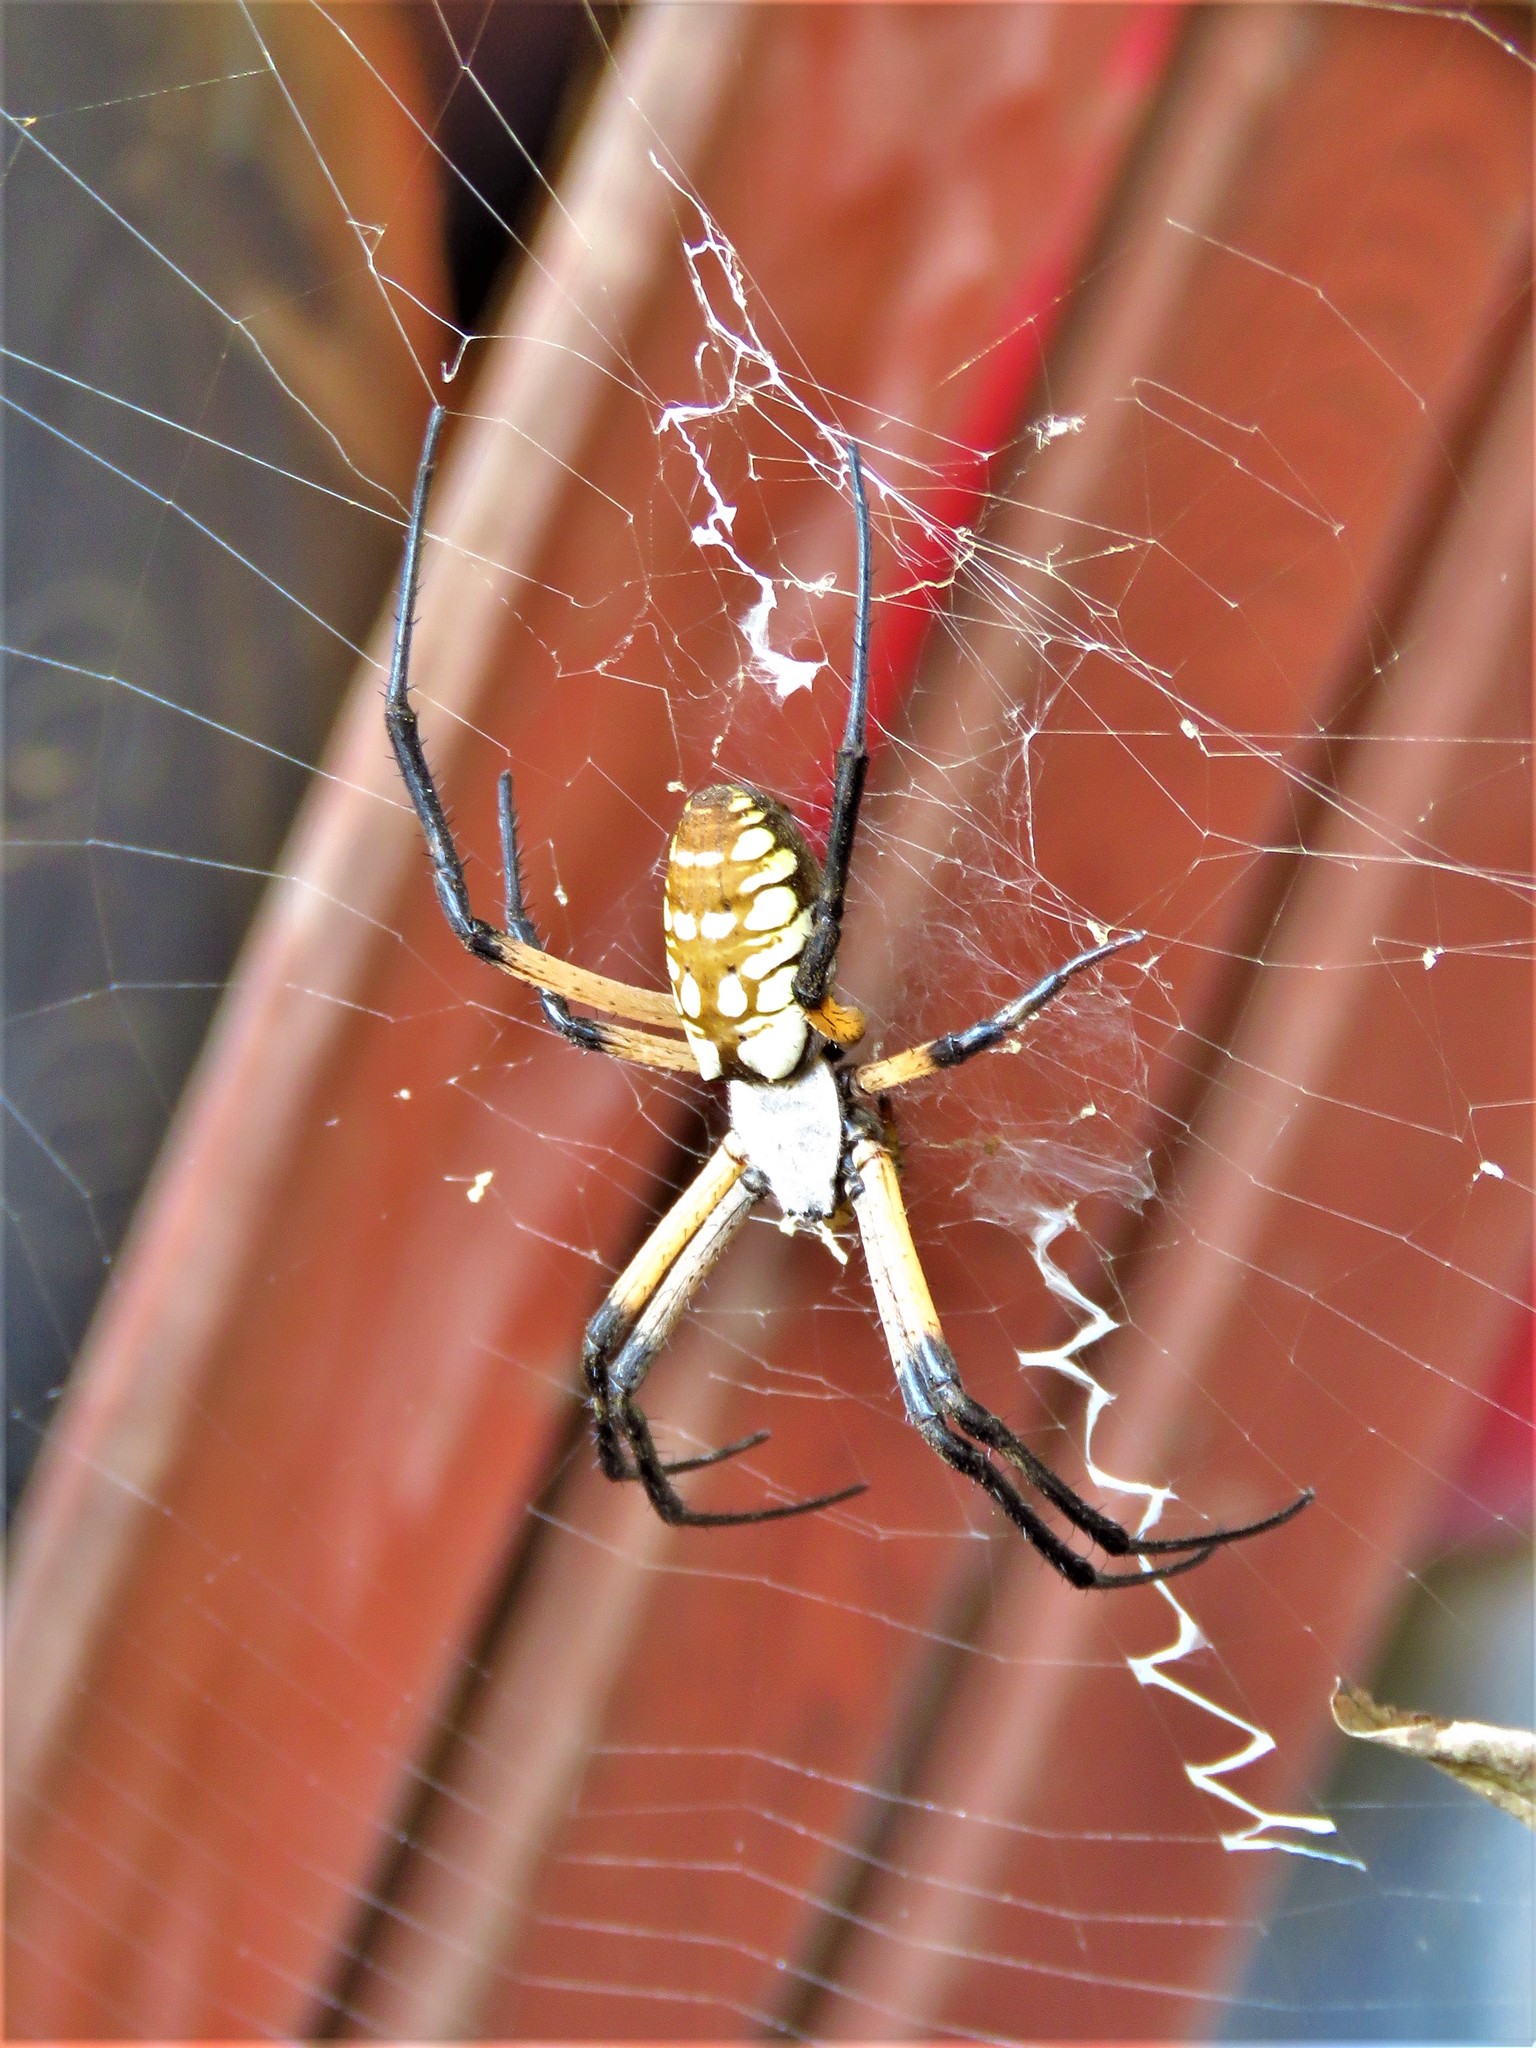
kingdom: Animalia
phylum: Arthropoda
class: Arachnida
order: Araneae
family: Araneidae
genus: Argiope
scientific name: Argiope aurantia
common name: Orb weavers
